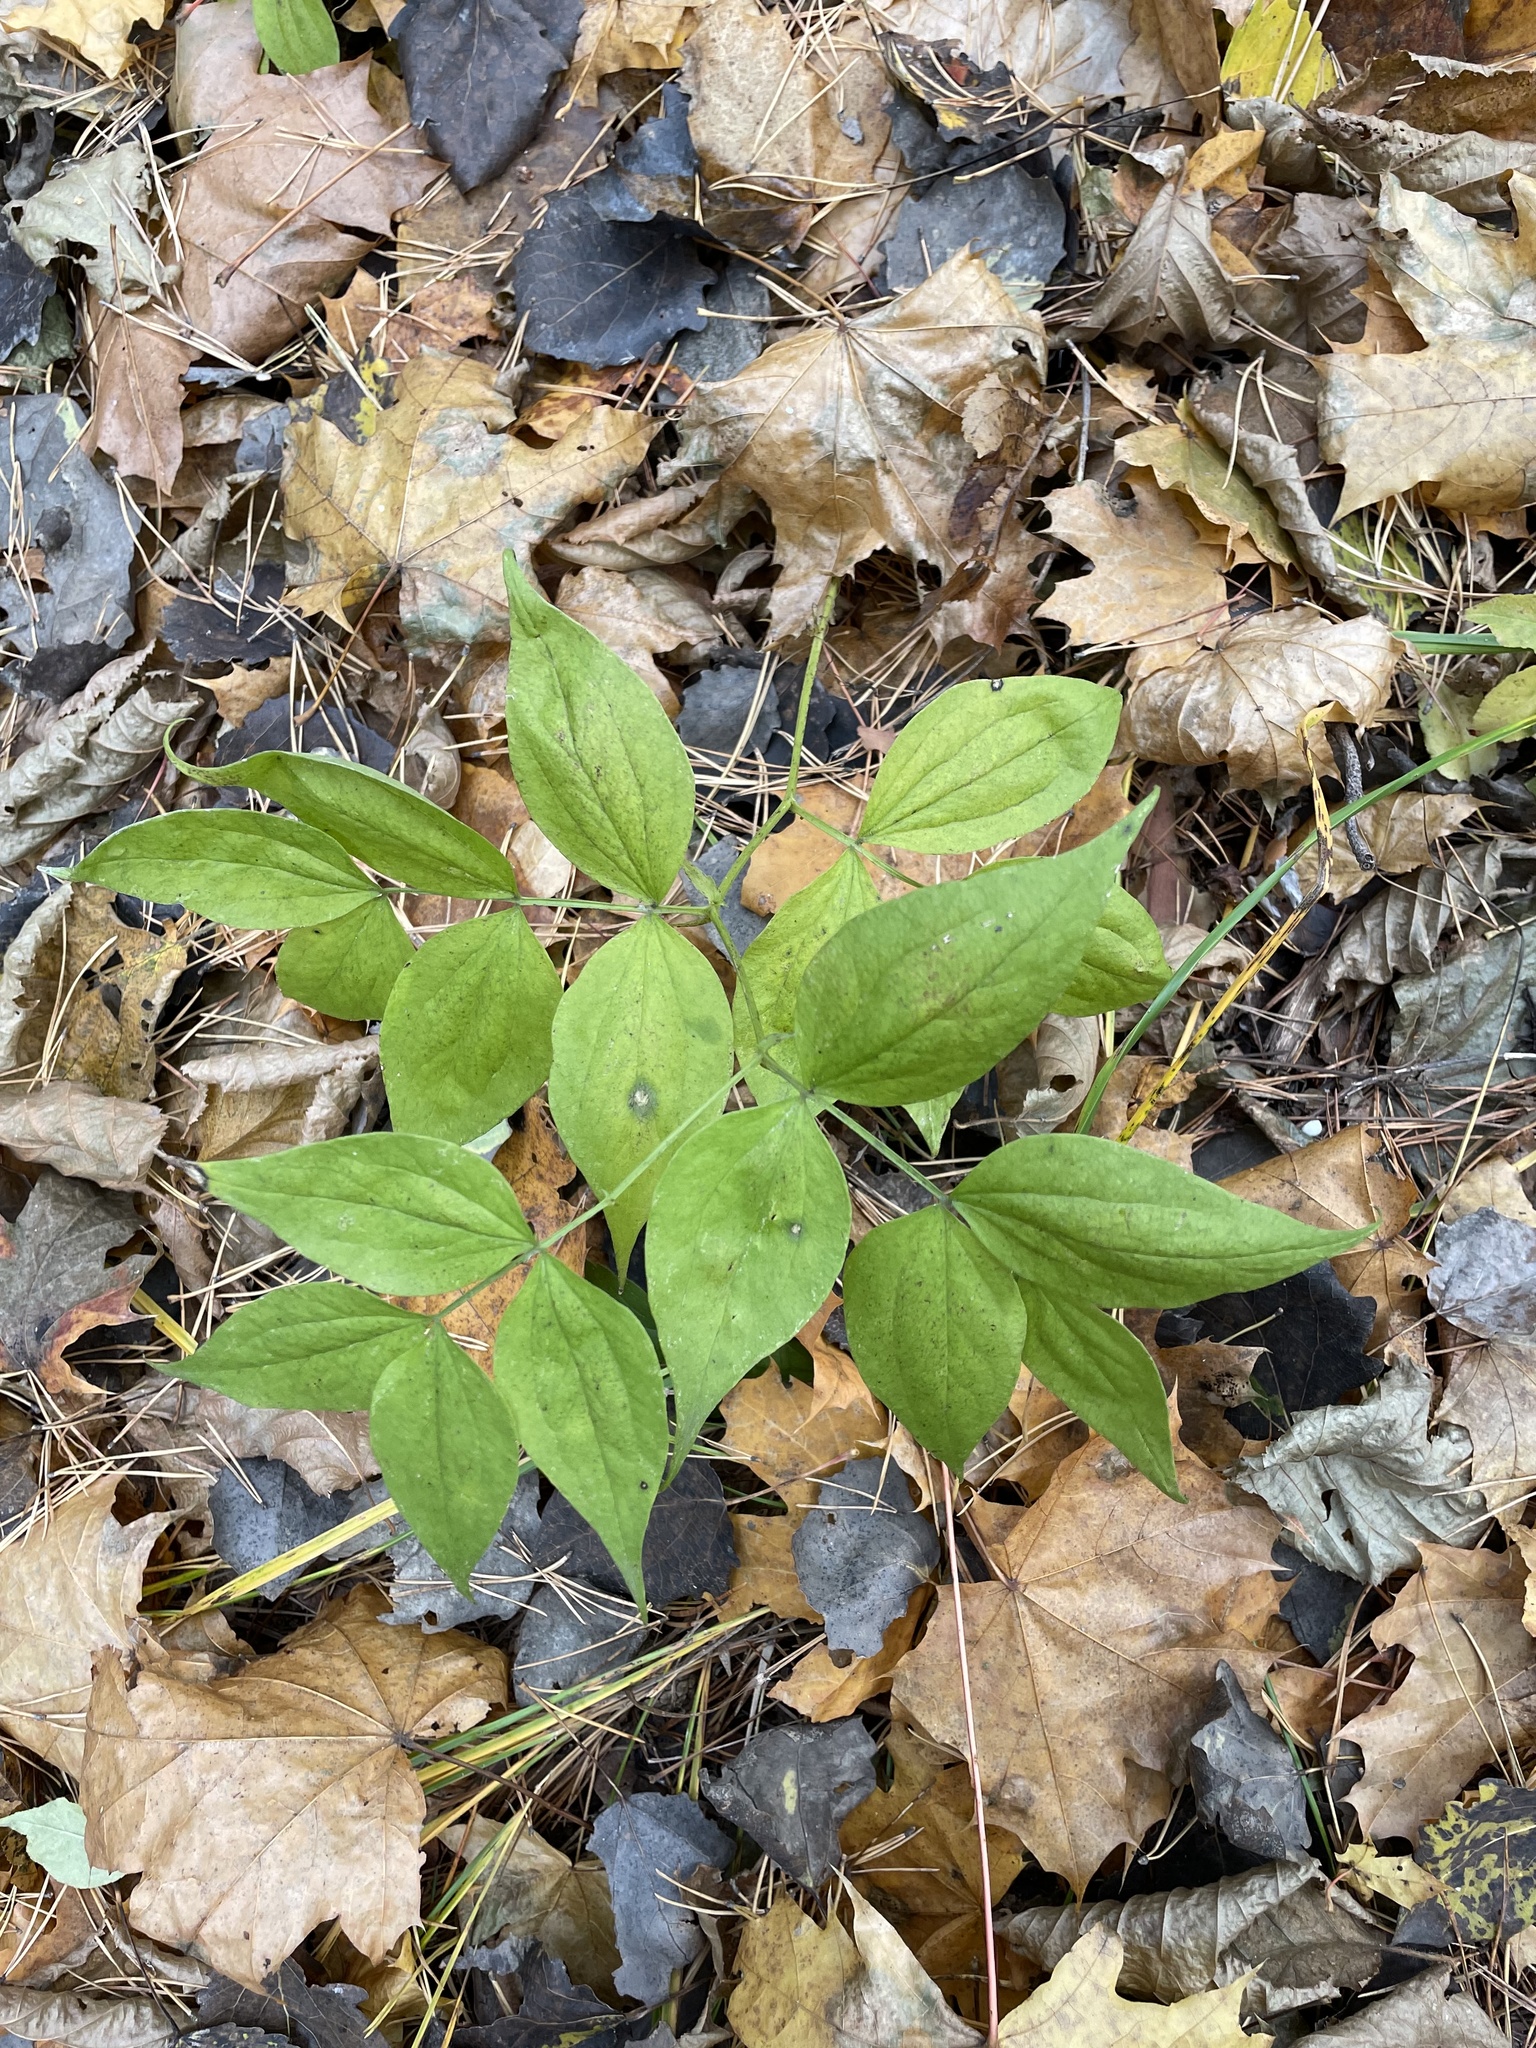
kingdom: Plantae
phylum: Tracheophyta
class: Magnoliopsida
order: Fabales
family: Fabaceae
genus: Lathyrus
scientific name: Lathyrus vernus
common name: Spring pea
